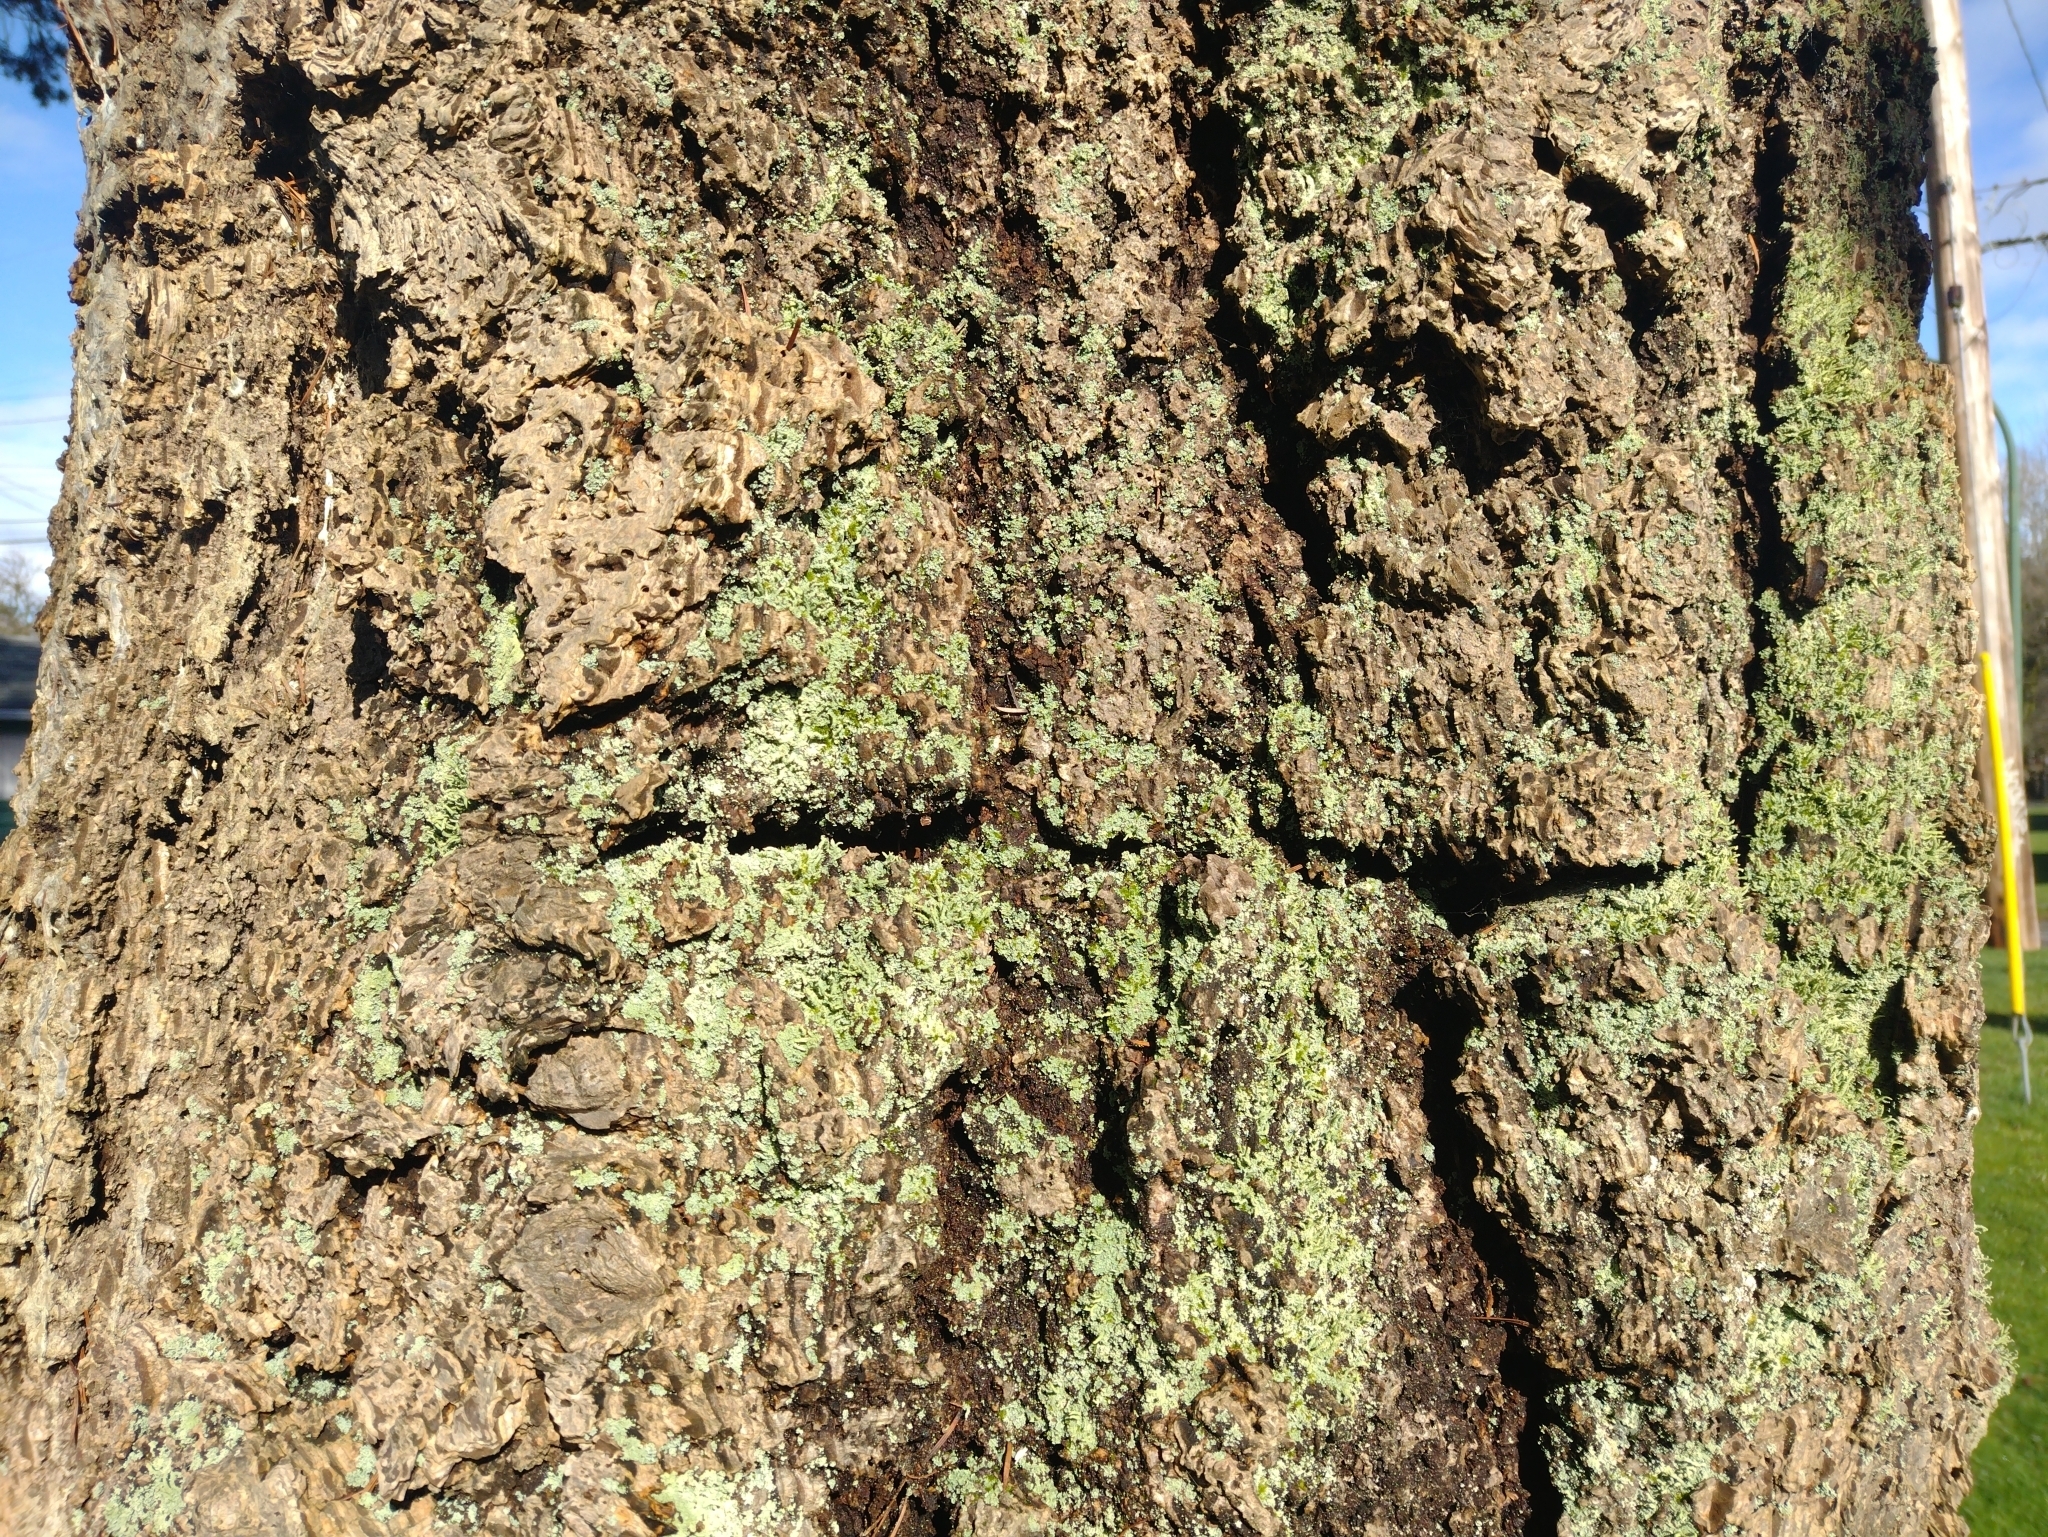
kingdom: Plantae
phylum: Tracheophyta
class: Pinopsida
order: Pinales
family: Pinaceae
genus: Pseudotsuga
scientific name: Pseudotsuga menziesii
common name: Douglas fir
